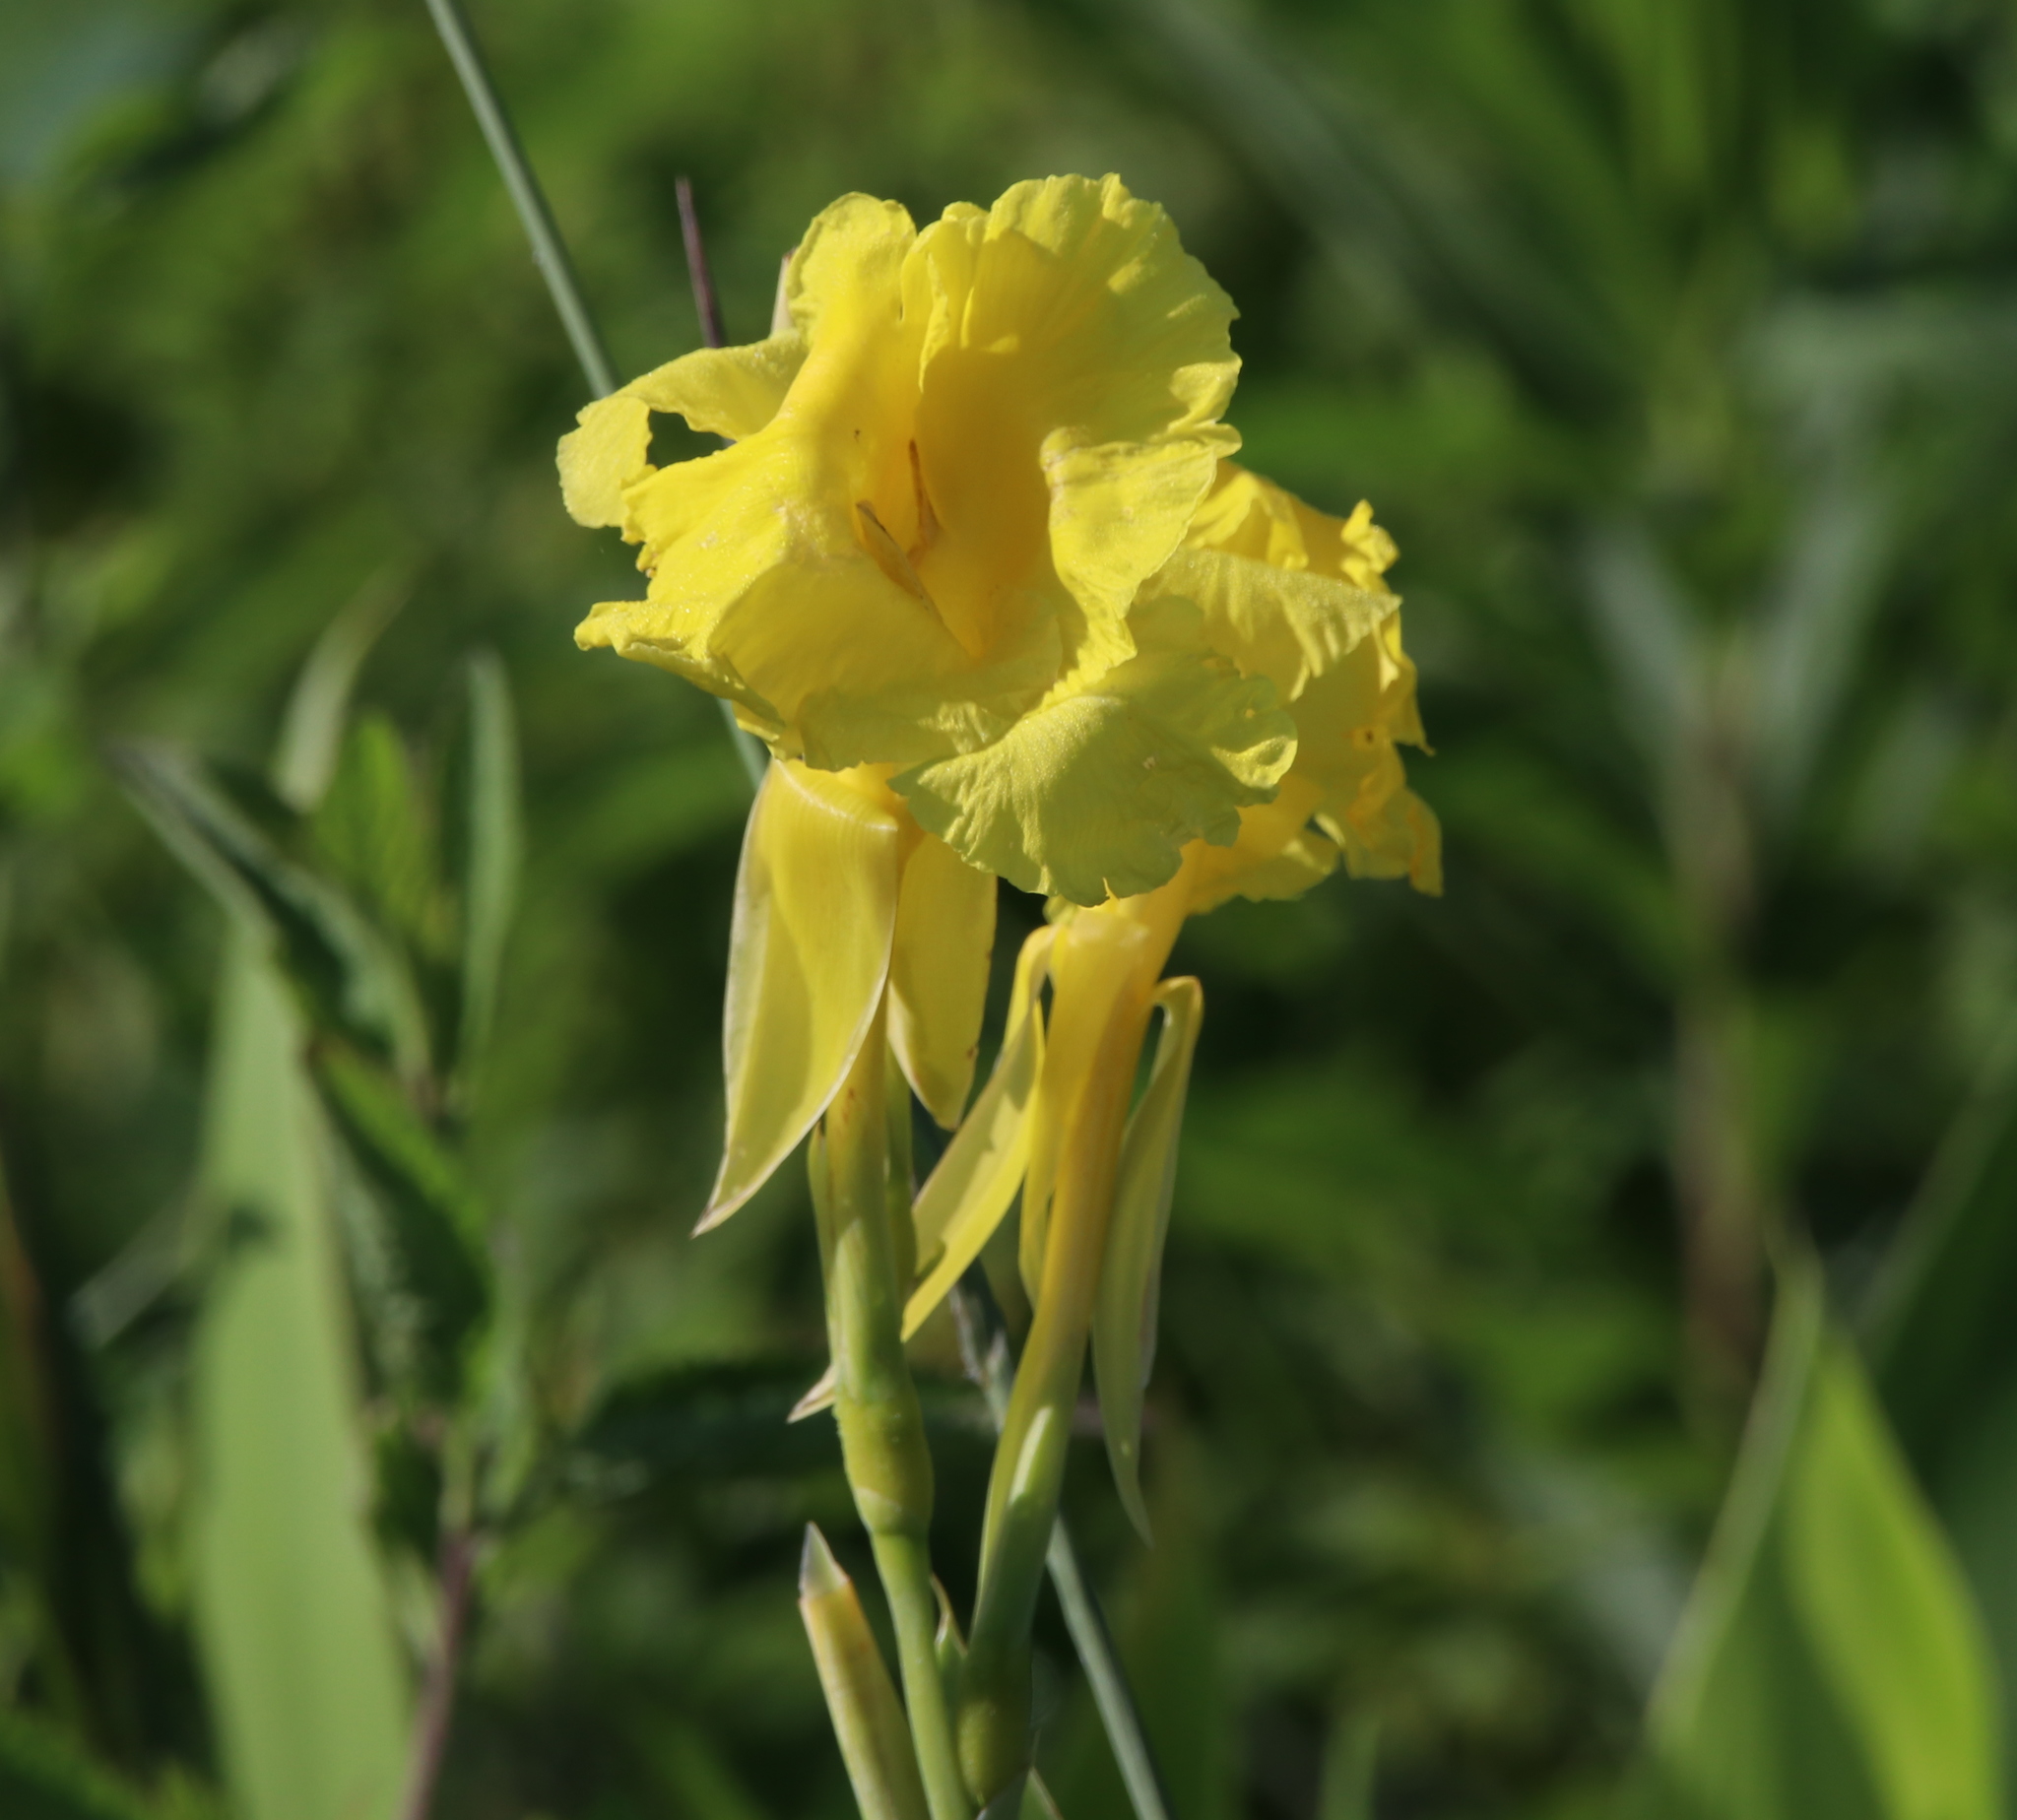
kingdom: Plantae
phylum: Tracheophyta
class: Liliopsida
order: Zingiberales
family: Cannaceae
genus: Canna
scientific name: Canna flaccida
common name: Bandana-of-the-everglades
